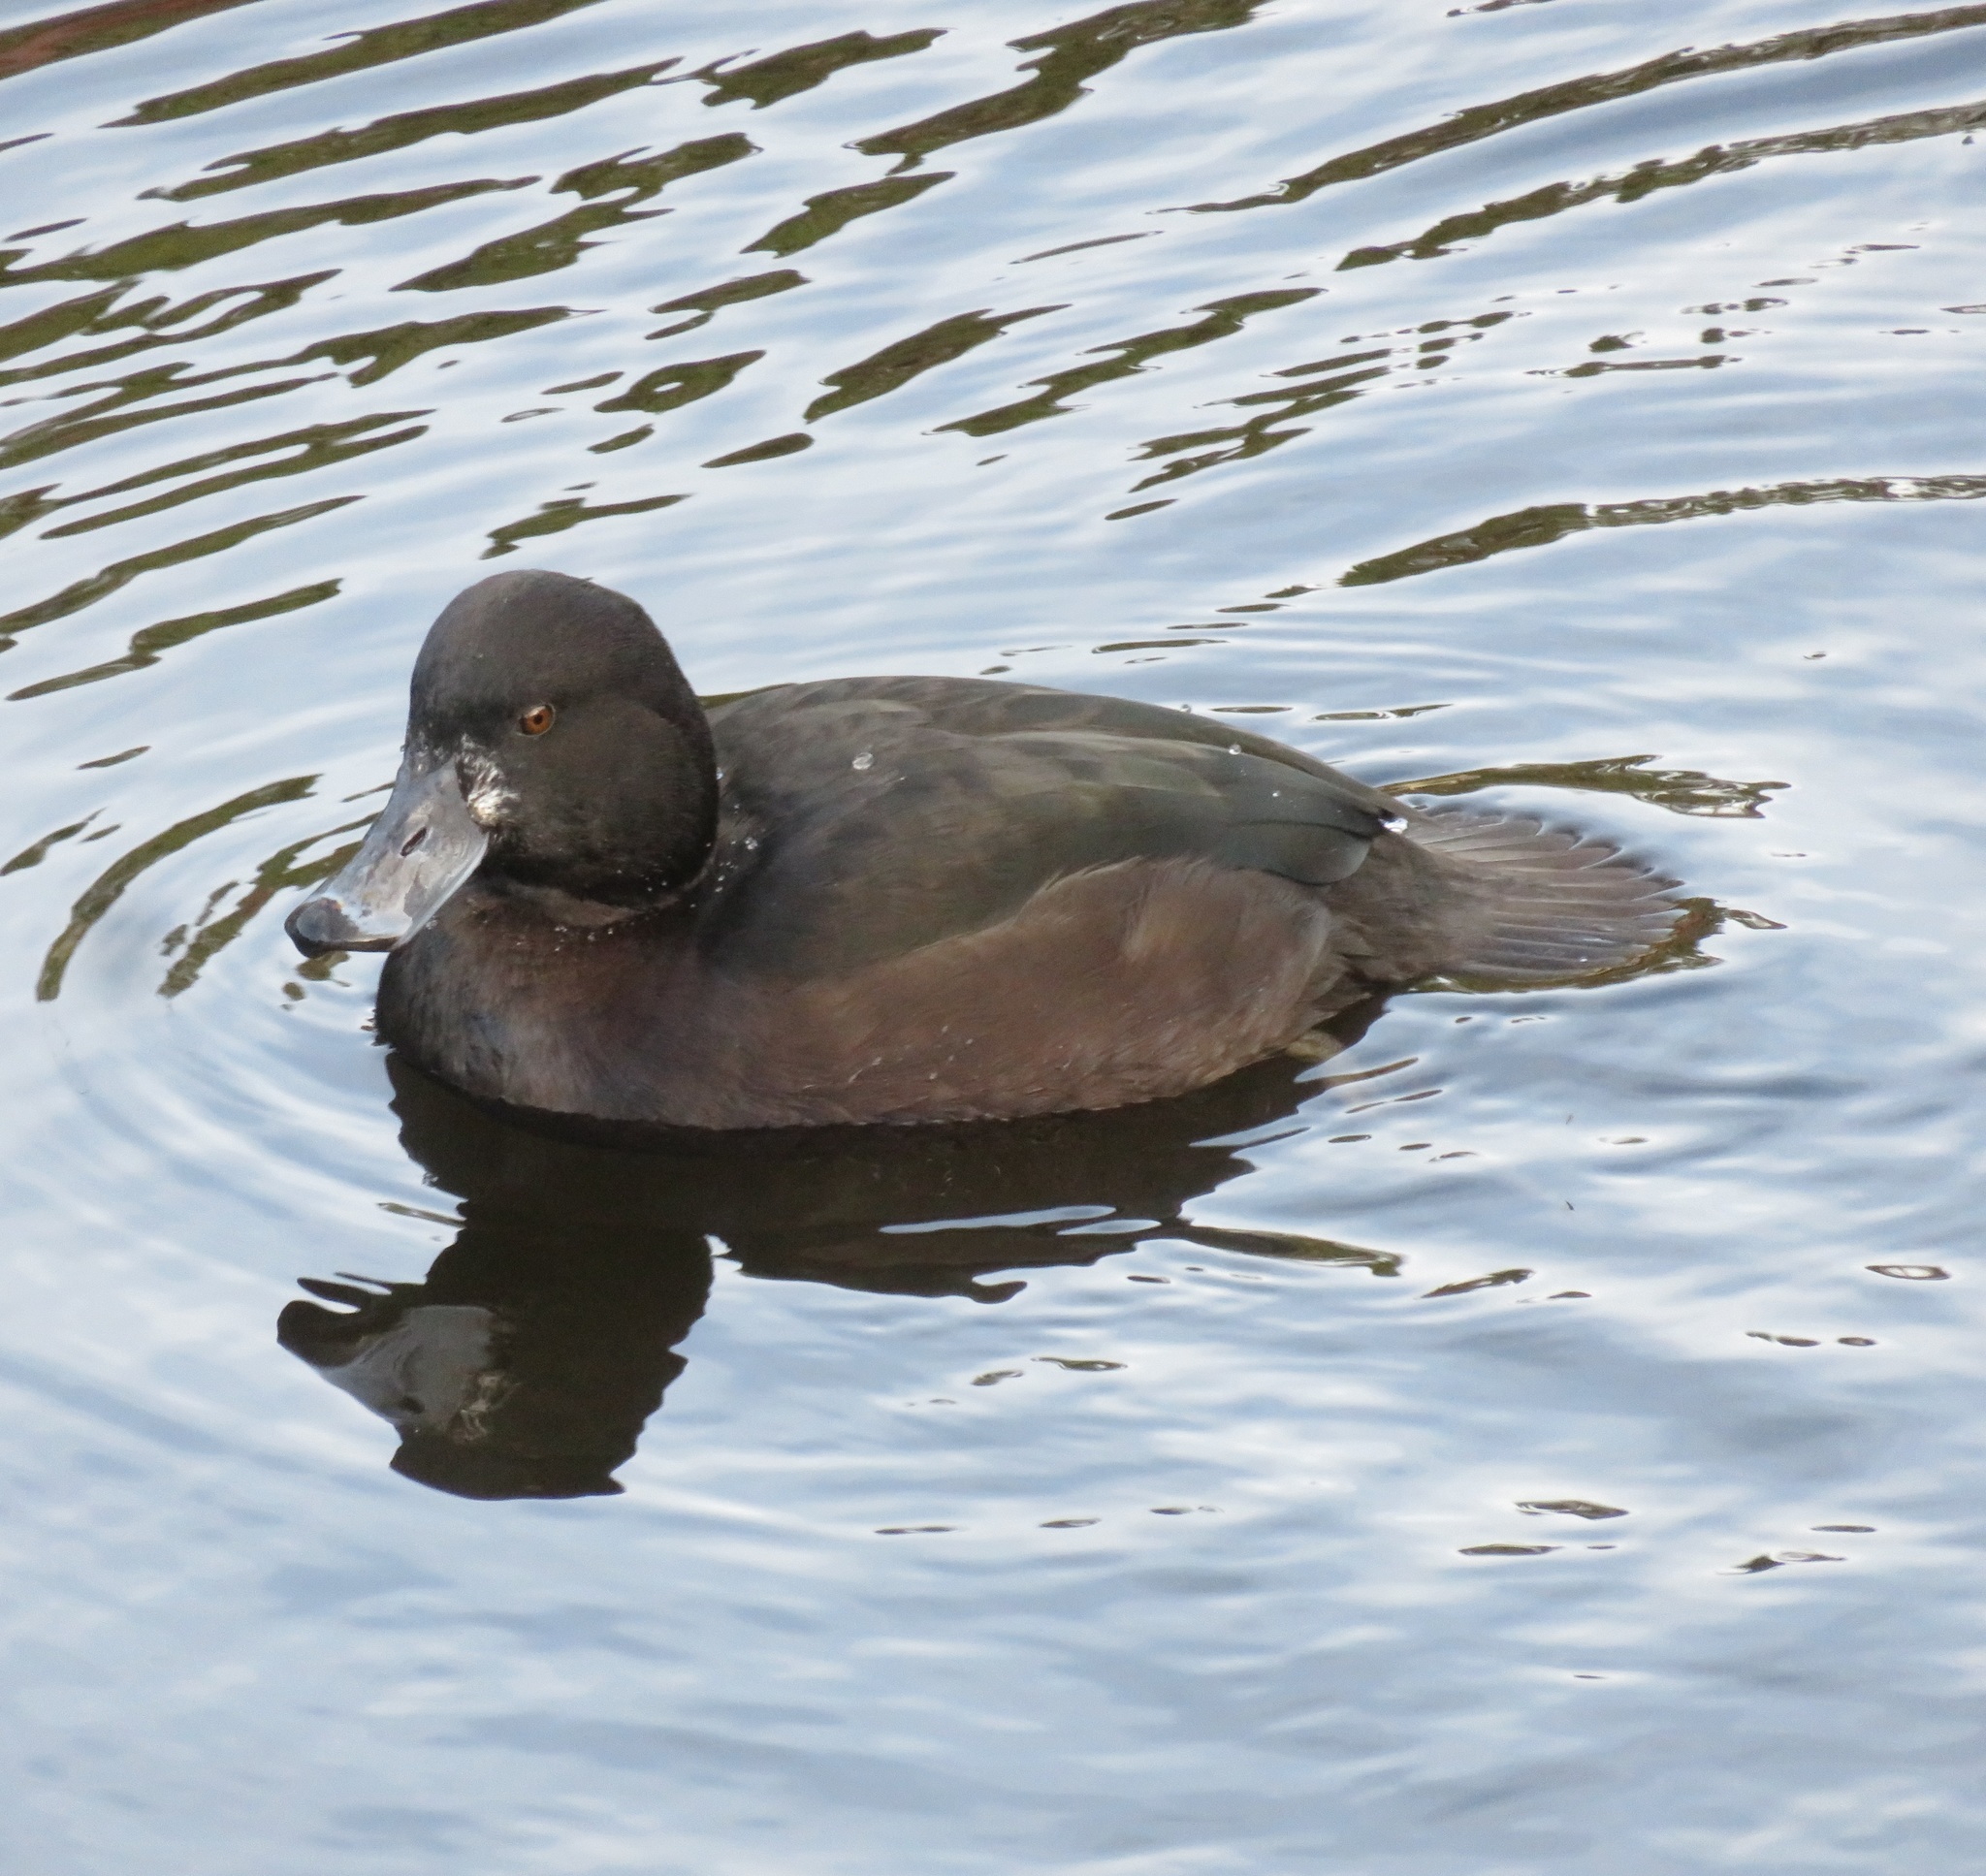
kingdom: Animalia
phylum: Chordata
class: Aves
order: Anseriformes
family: Anatidae
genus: Aythya
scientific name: Aythya novaeseelandiae
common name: New zealand scaup
